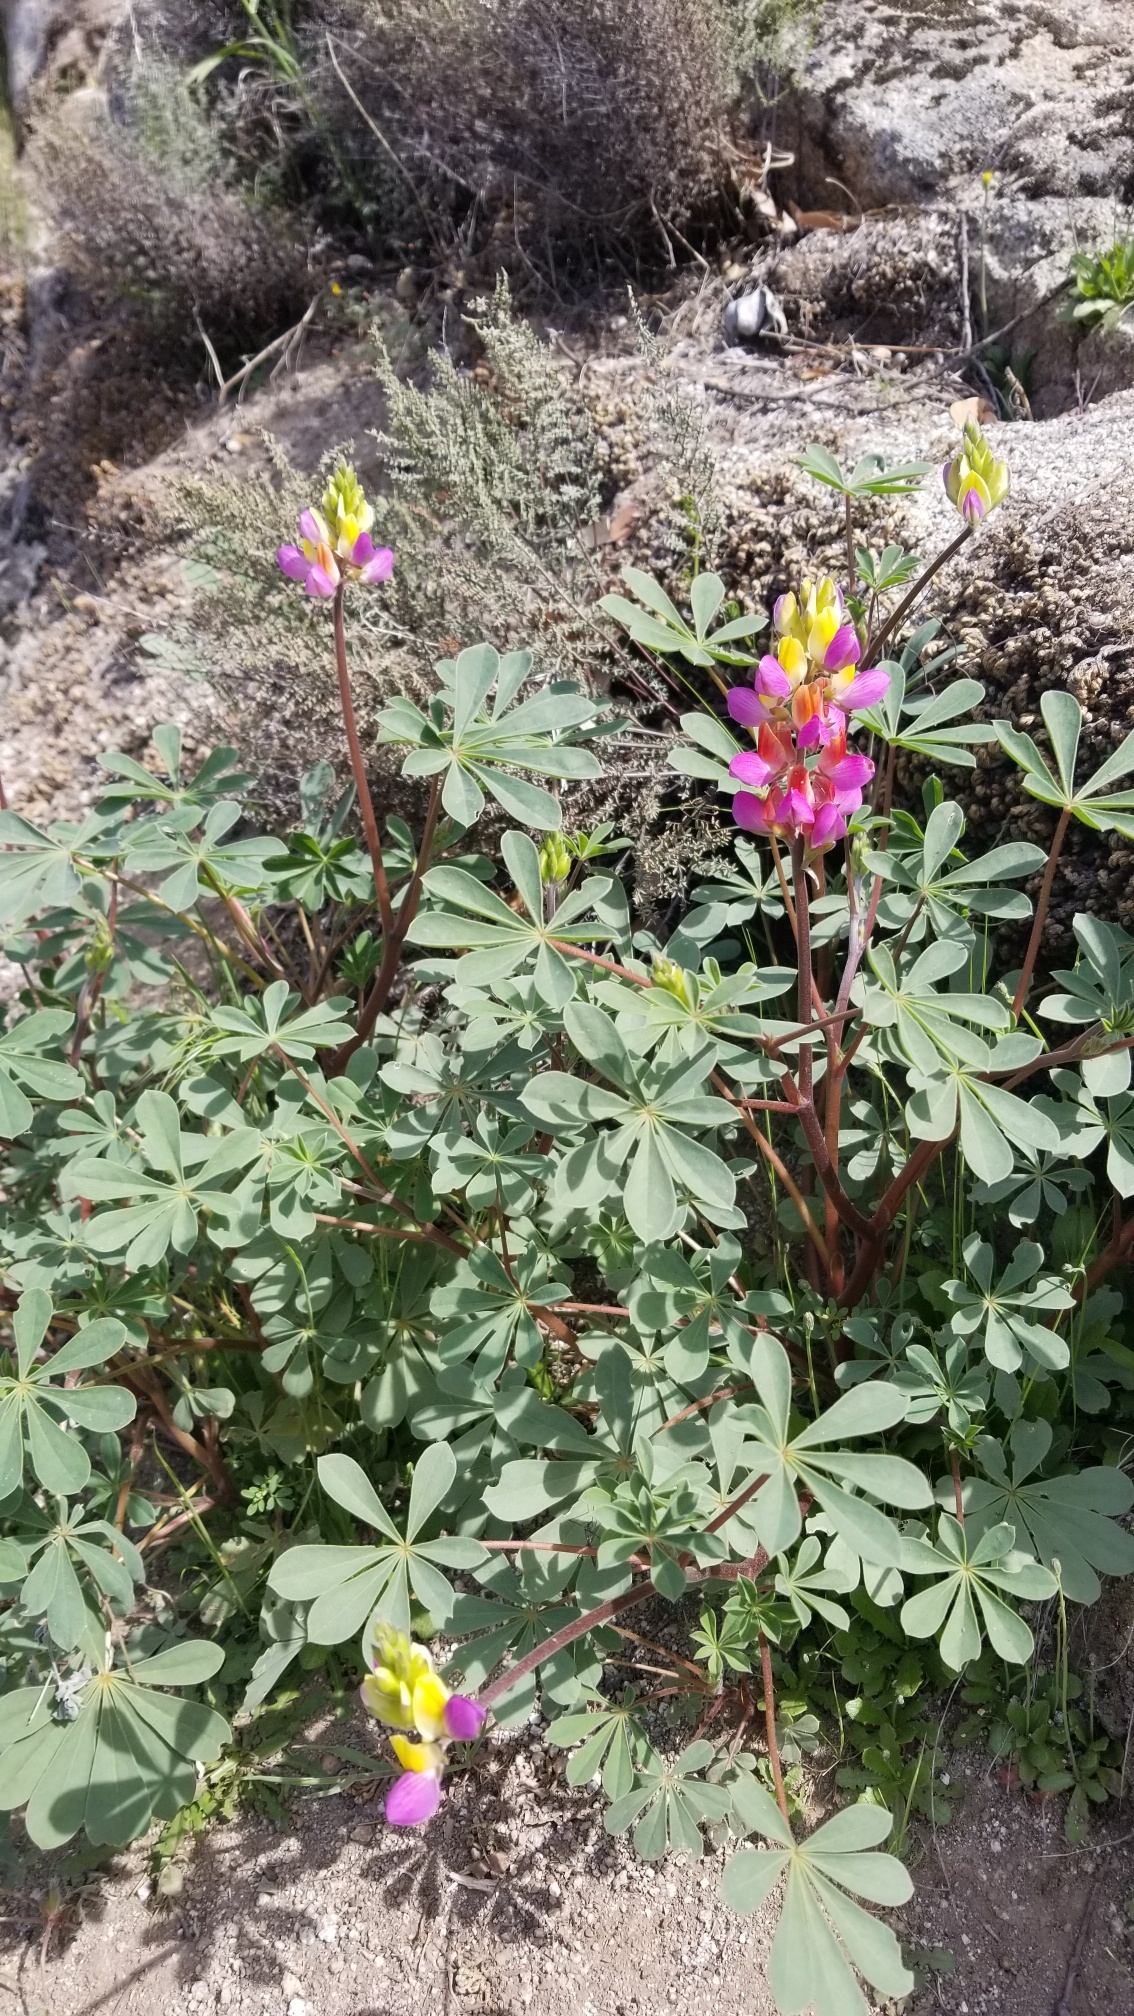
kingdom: Plantae
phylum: Tracheophyta
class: Magnoliopsida
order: Fabales
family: Fabaceae
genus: Lupinus
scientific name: Lupinus stiversii
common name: Harlequin lupine
